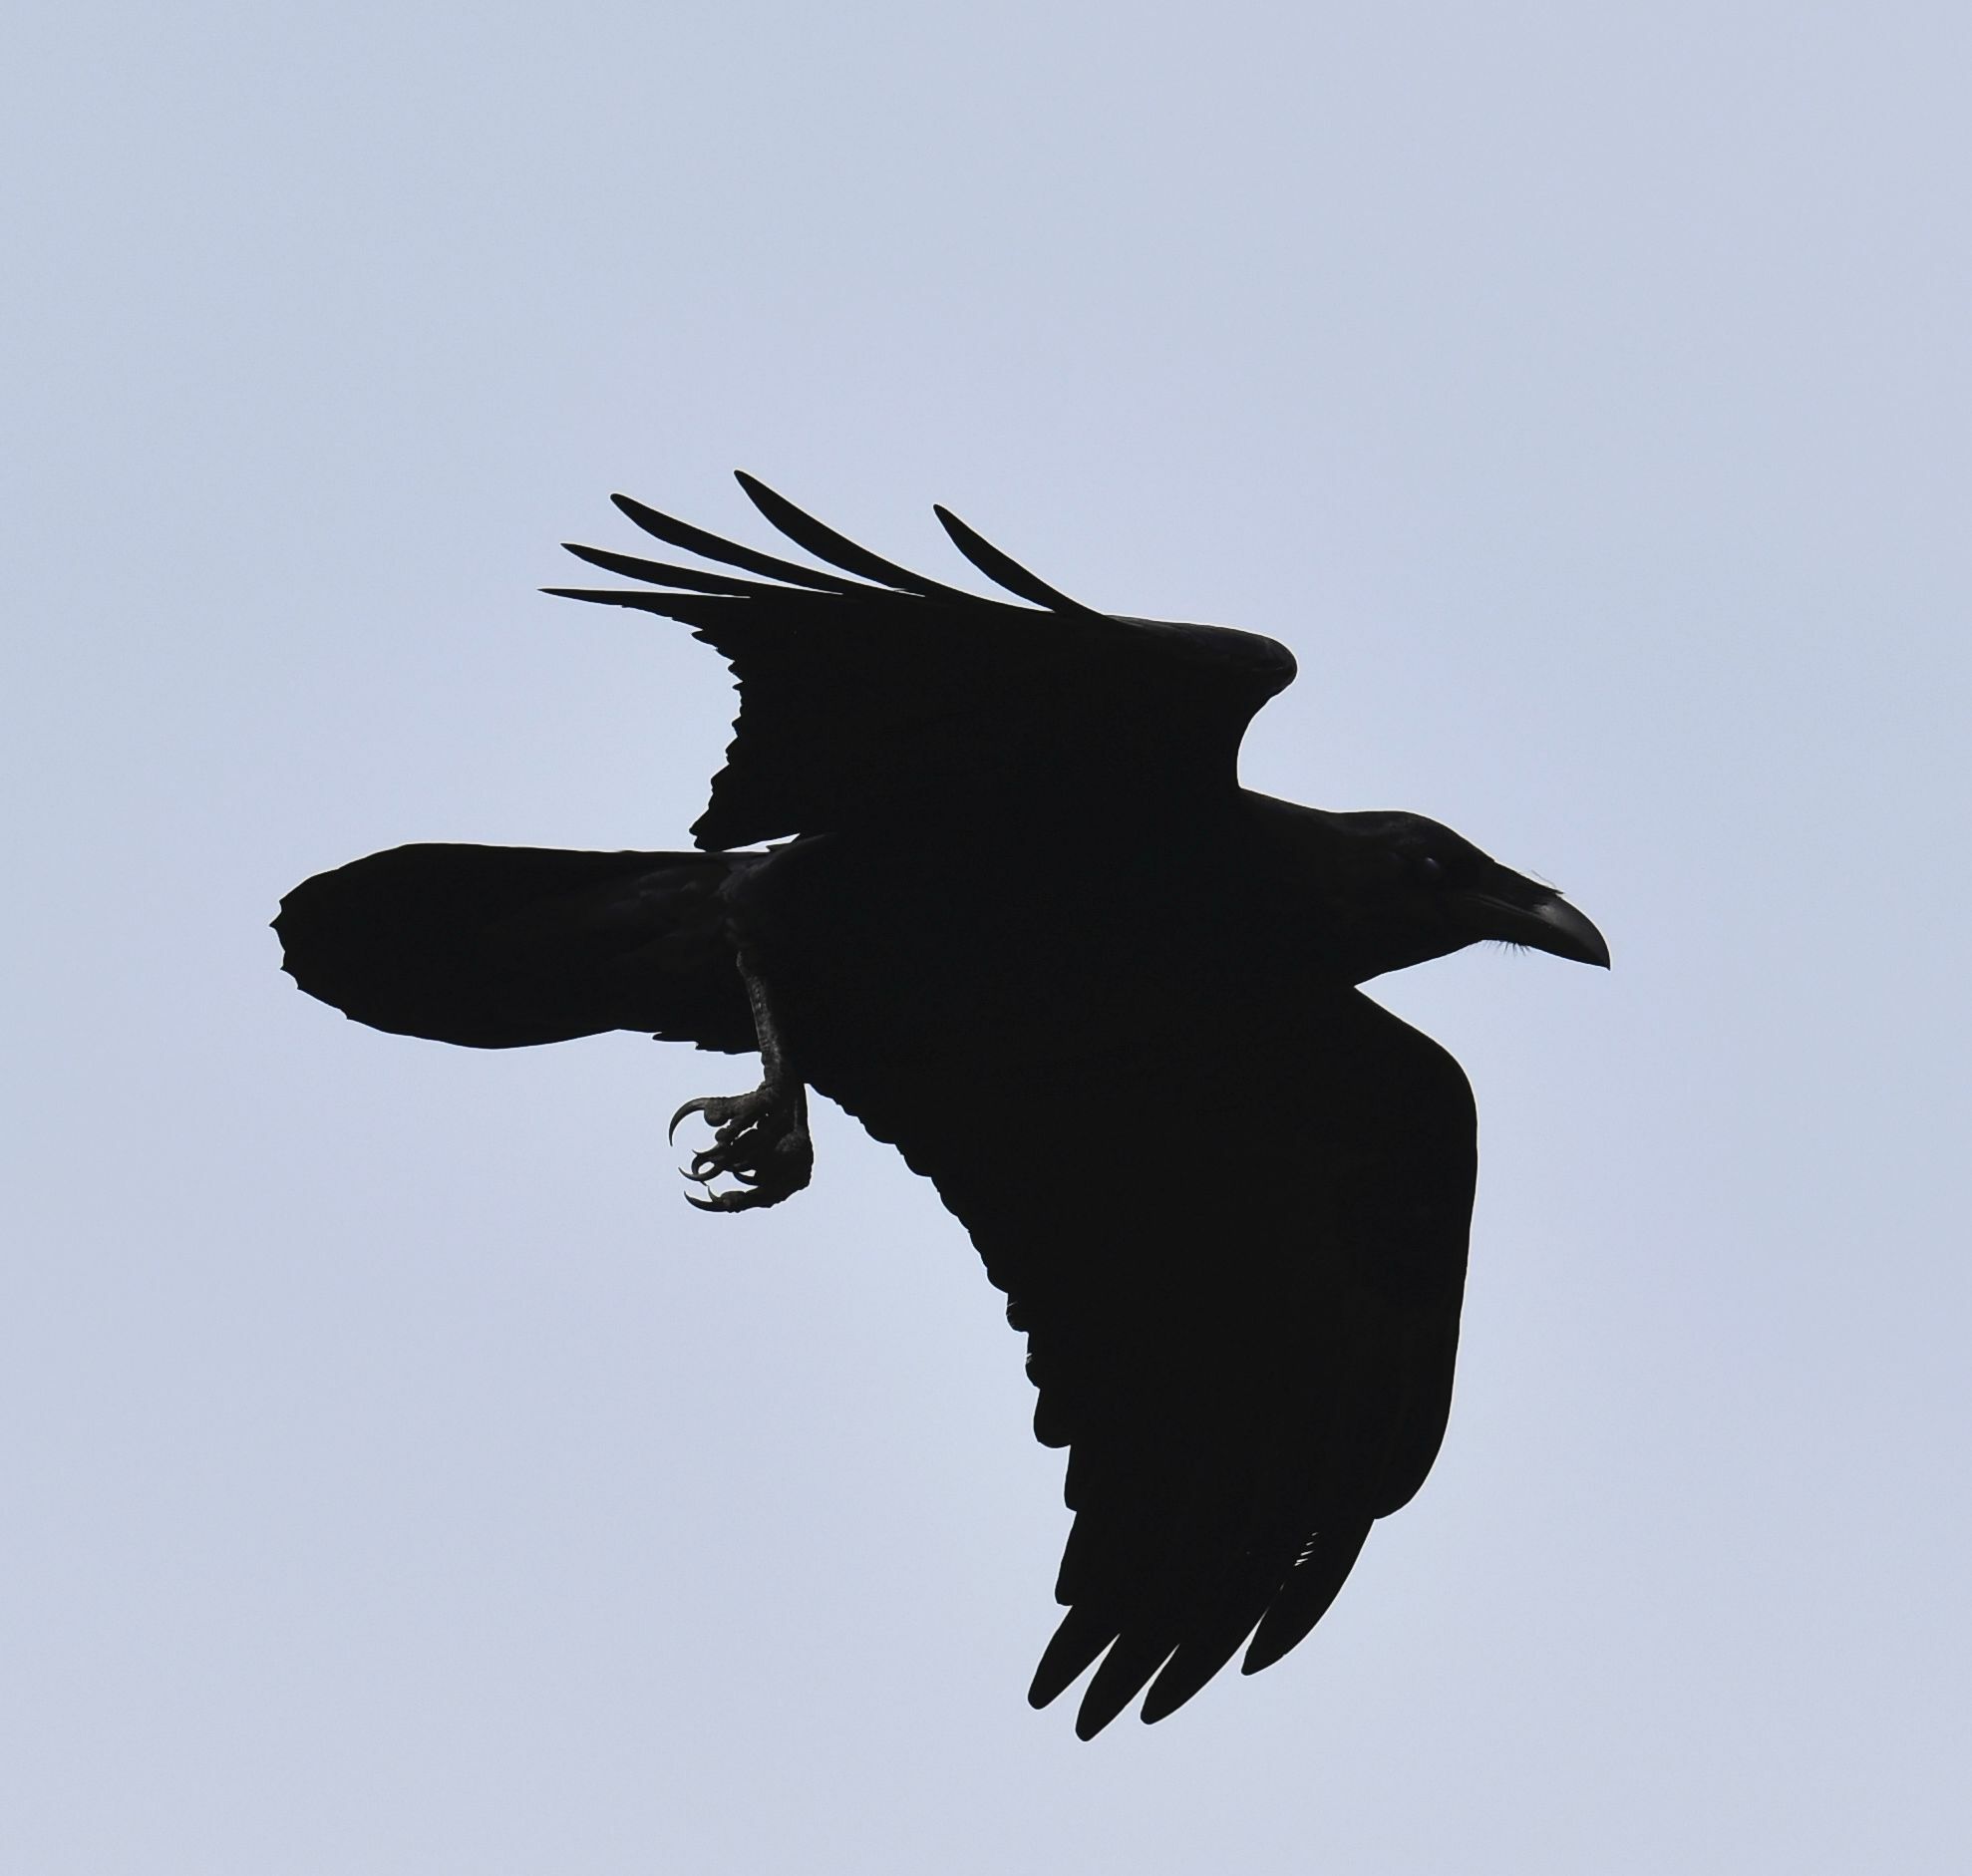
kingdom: Animalia
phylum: Chordata
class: Aves
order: Passeriformes
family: Corvidae
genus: Corvus
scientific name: Corvus corax
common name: Common raven
